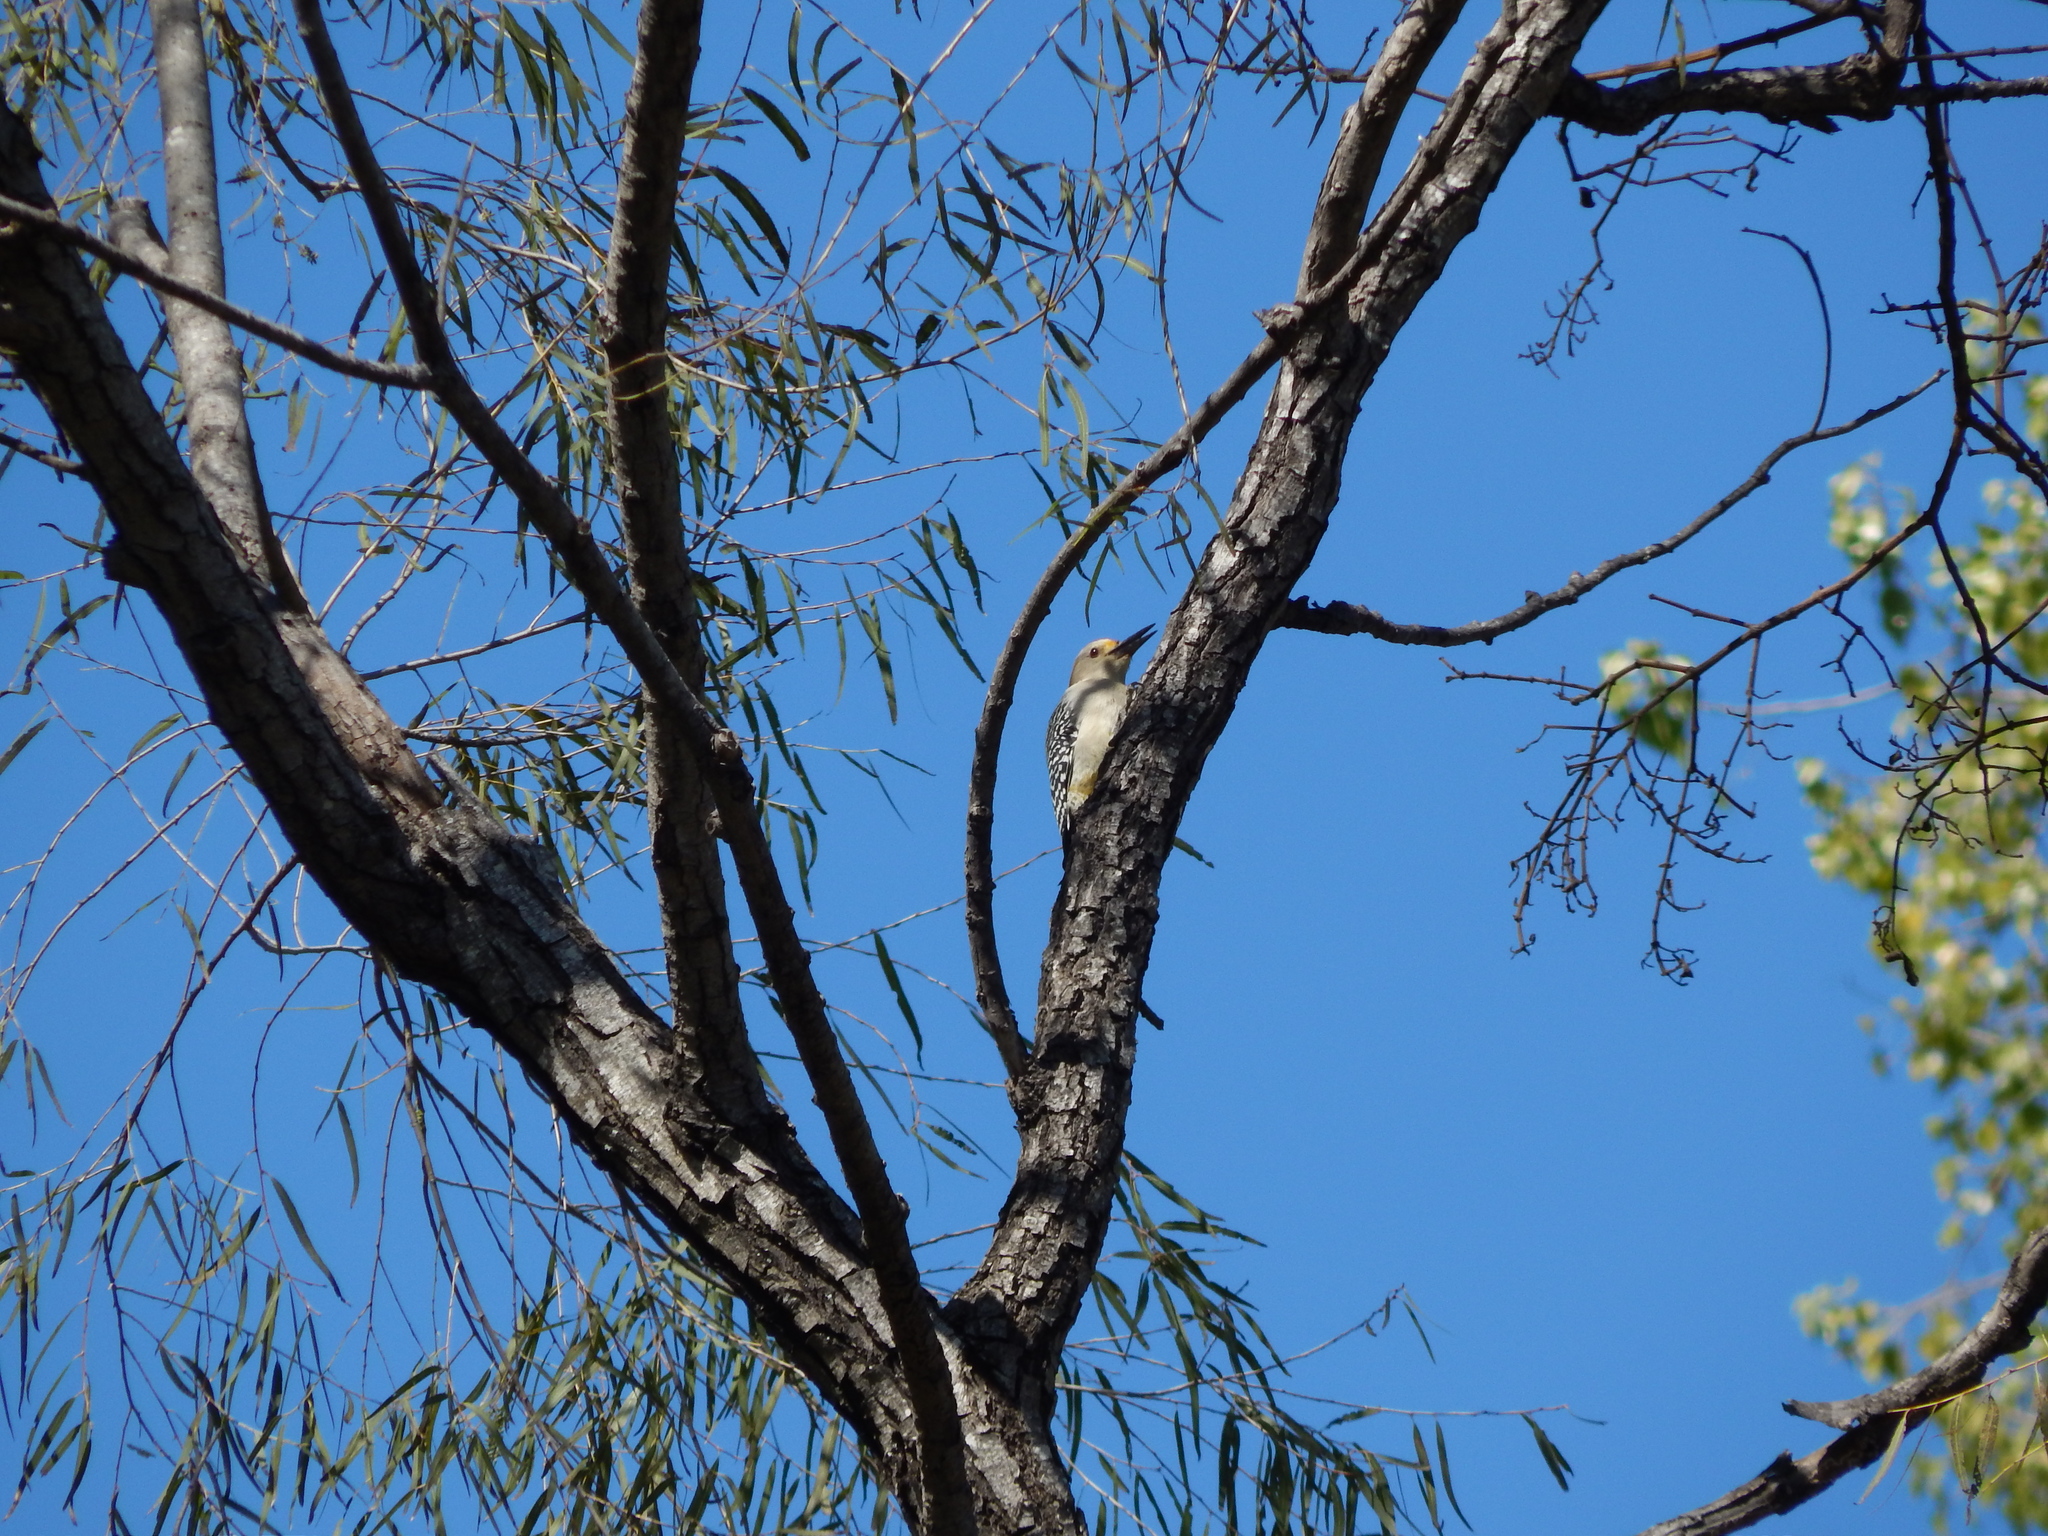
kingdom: Animalia
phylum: Chordata
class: Aves
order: Piciformes
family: Picidae
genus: Melanerpes
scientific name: Melanerpes aurifrons
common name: Golden-fronted woodpecker
